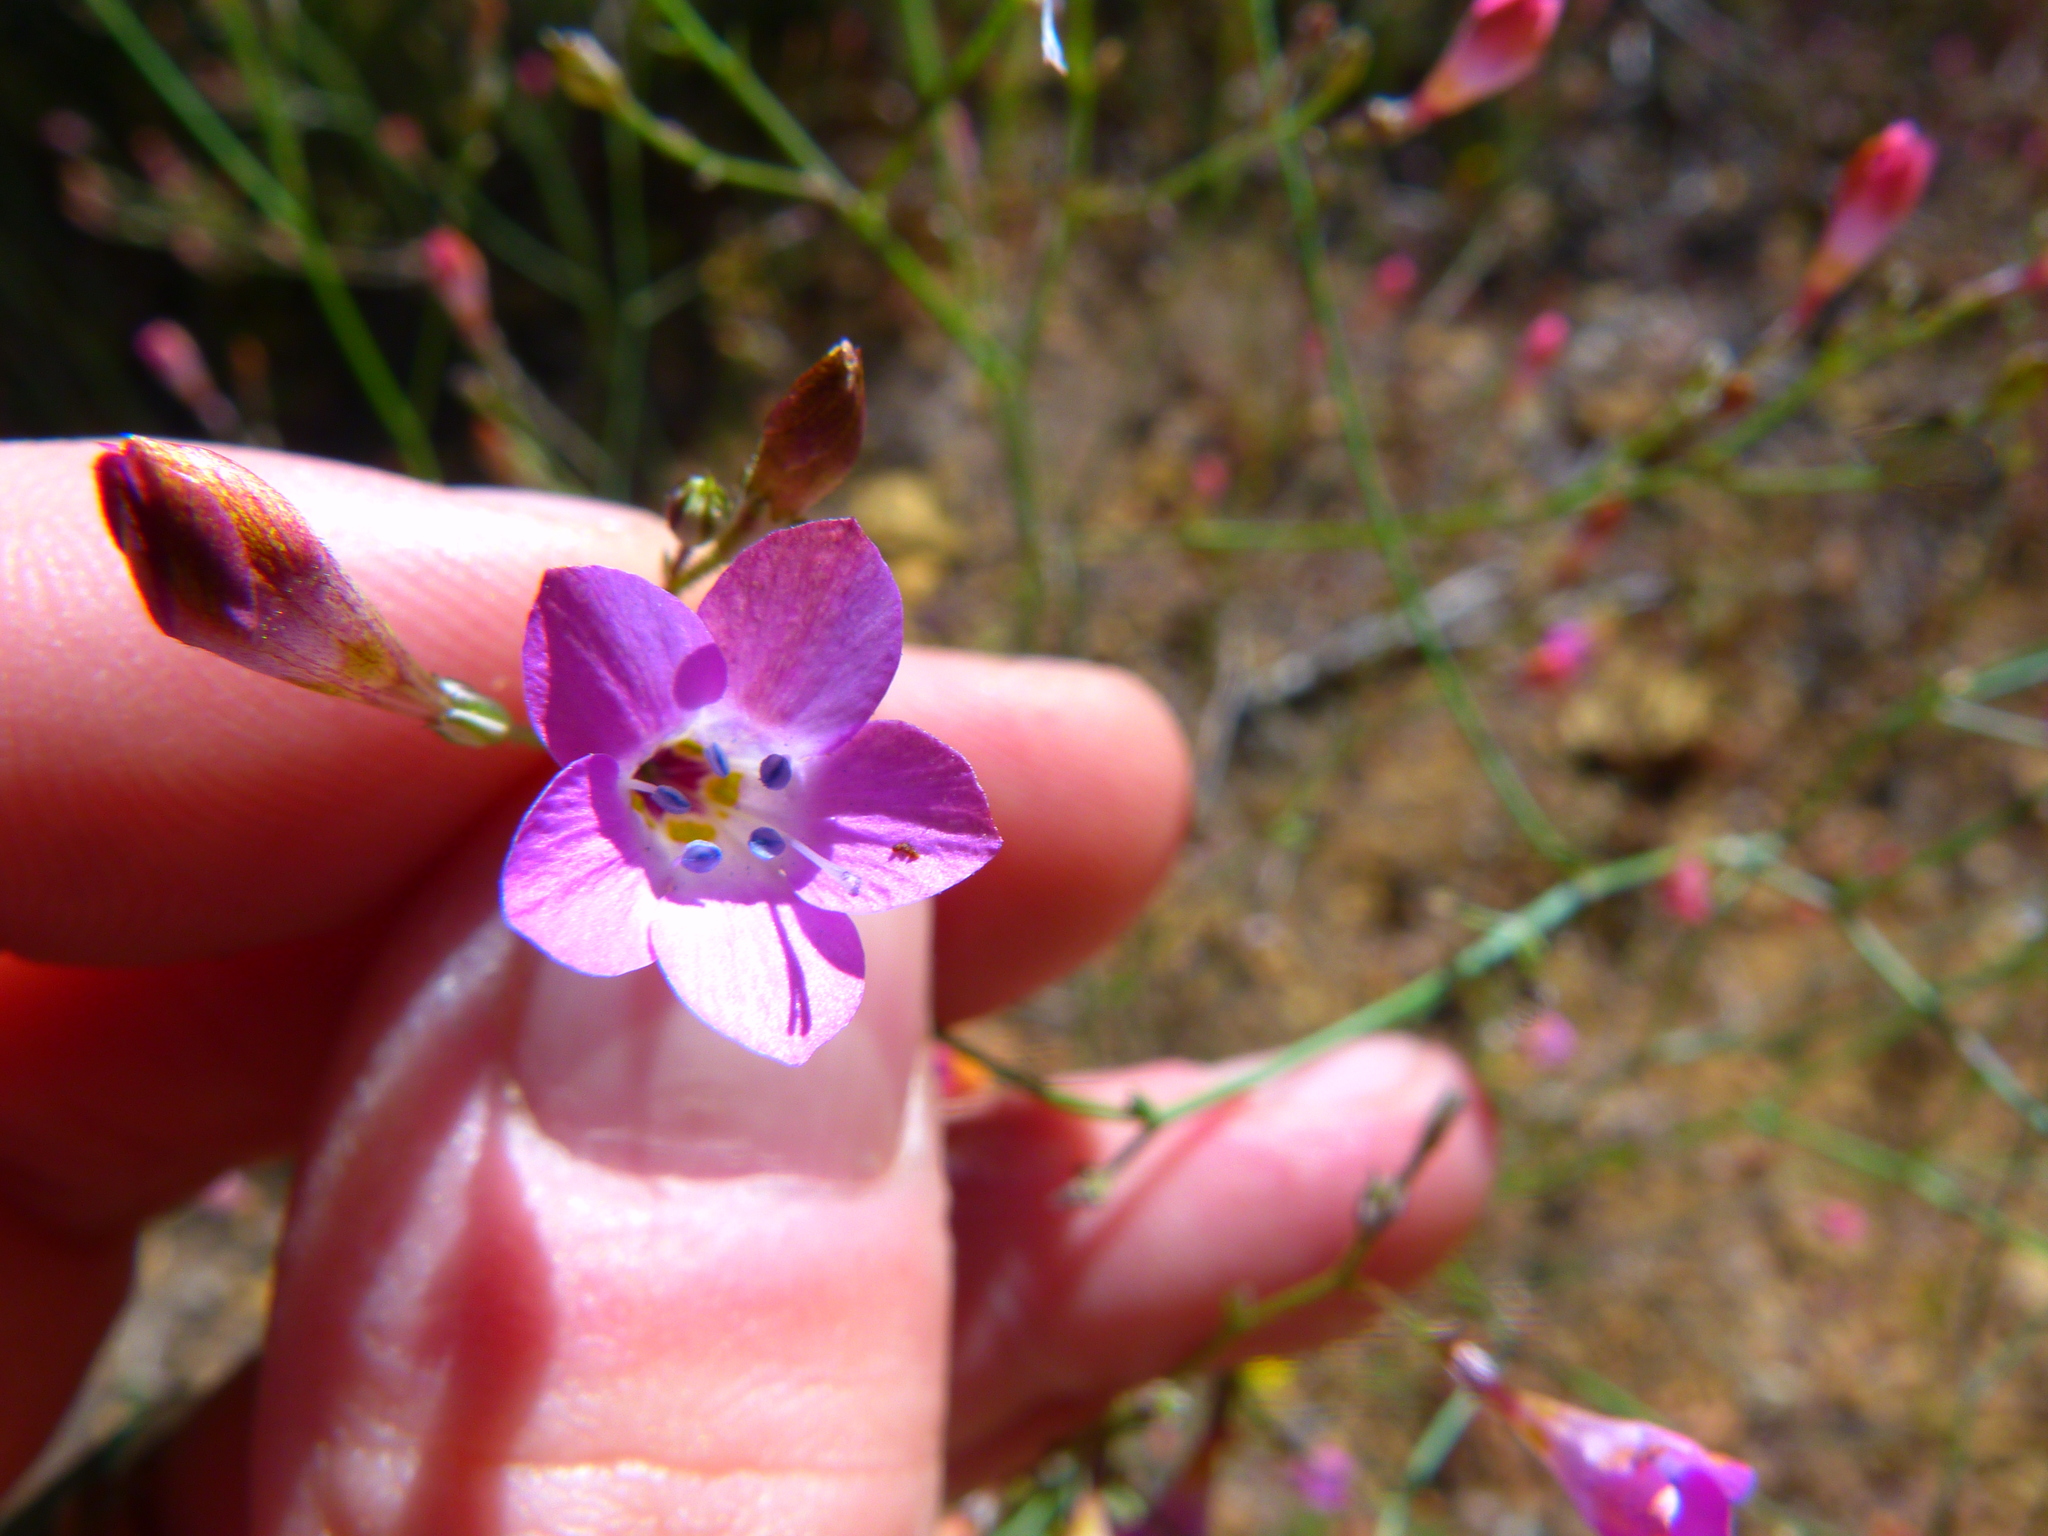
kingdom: Plantae
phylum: Tracheophyta
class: Magnoliopsida
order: Ericales
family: Polemoniaceae
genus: Saltugilia
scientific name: Saltugilia splendens
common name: Grinnell's gilia
